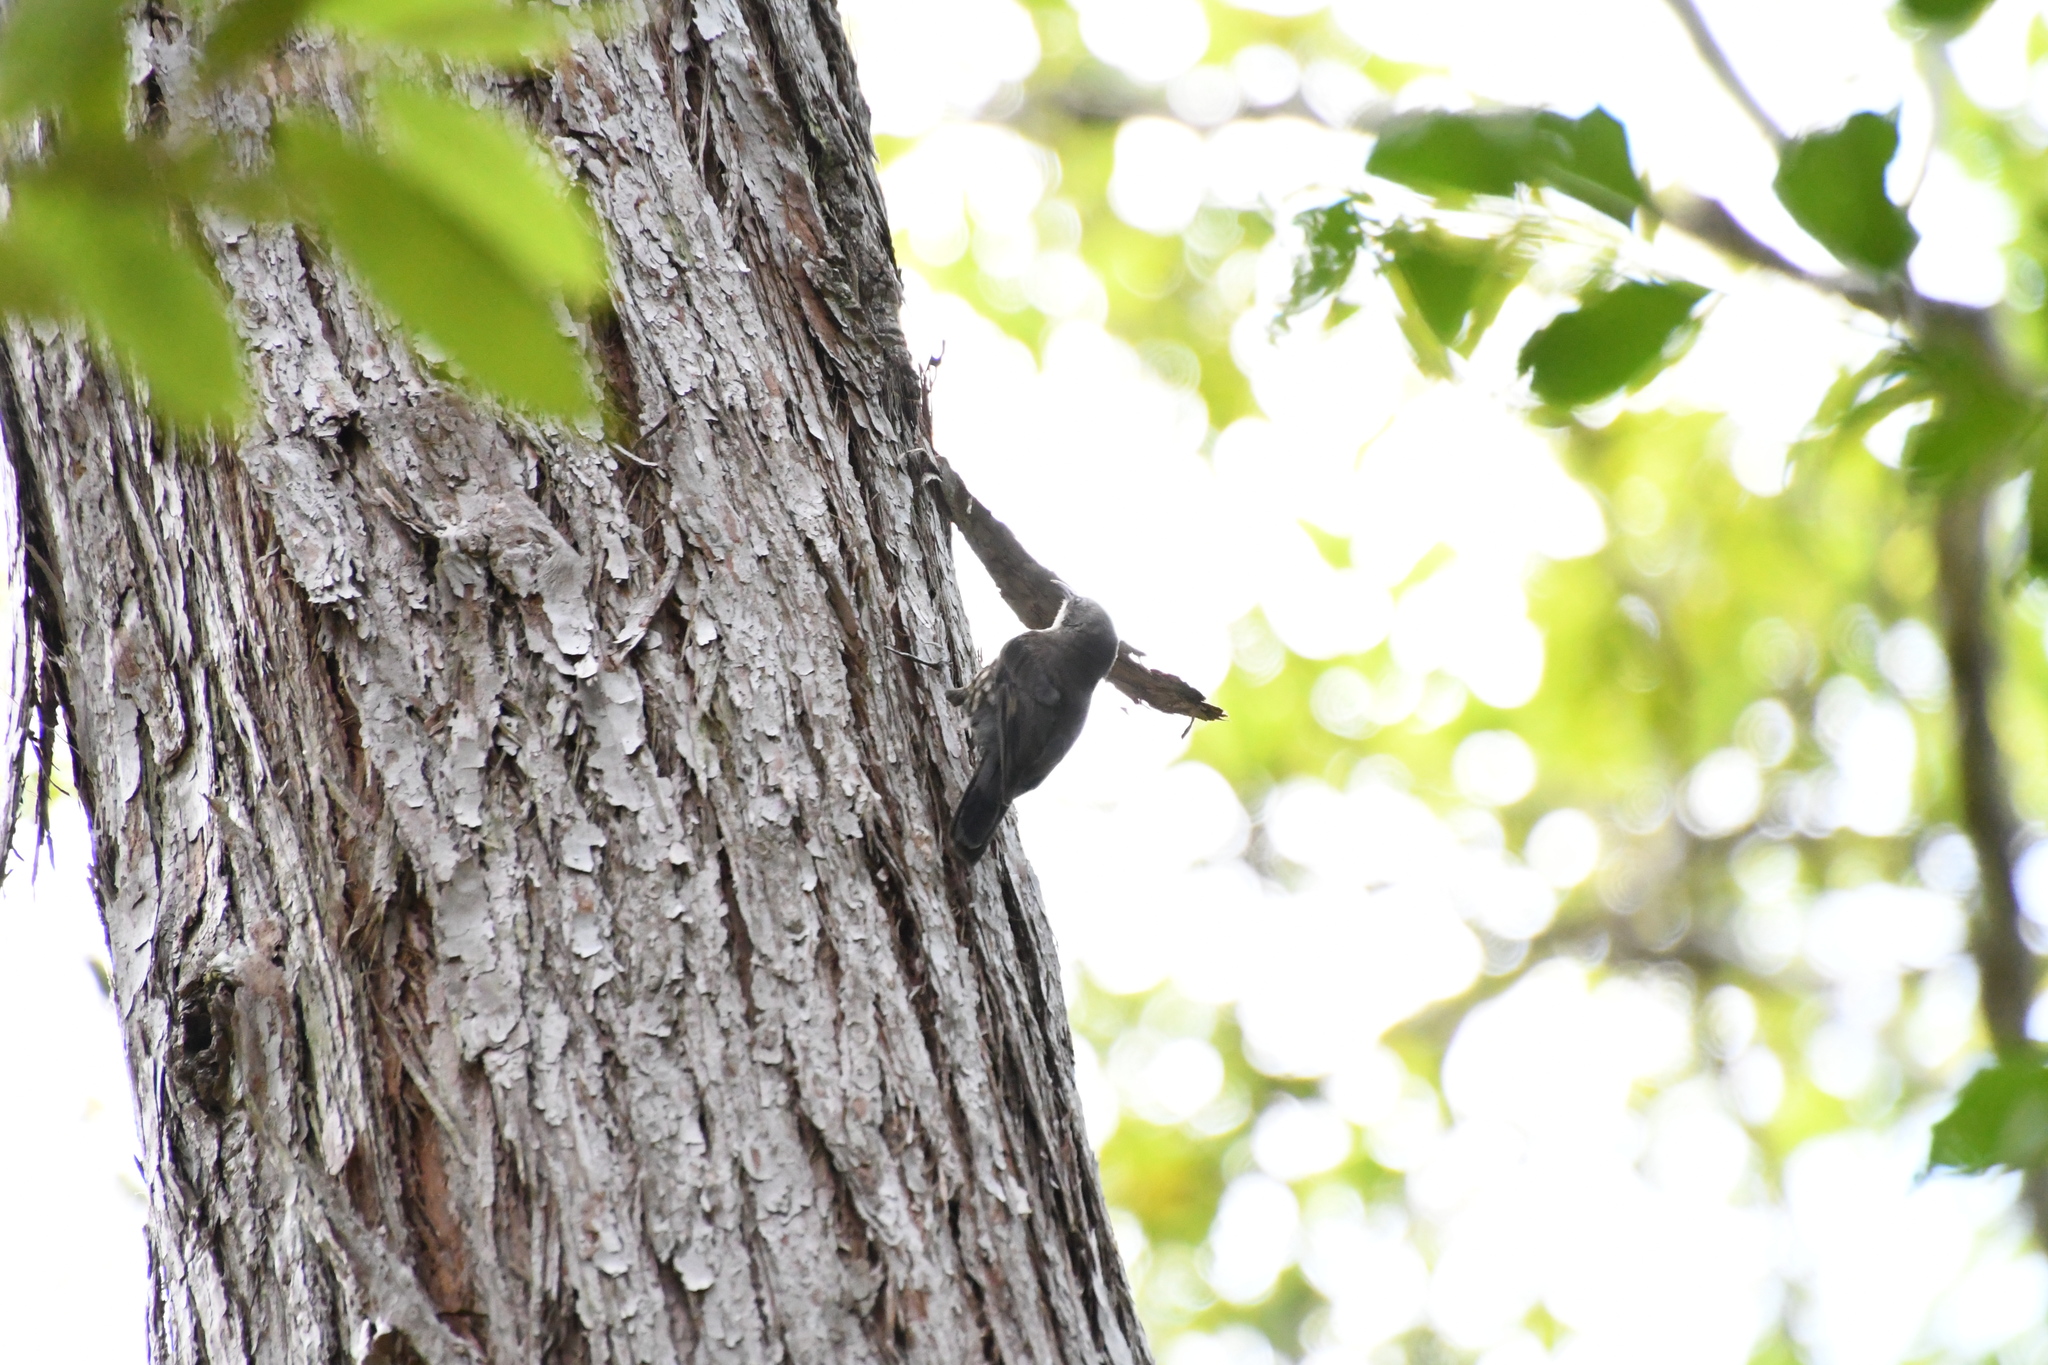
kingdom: Animalia
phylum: Chordata
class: Aves
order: Passeriformes
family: Climacteridae
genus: Cormobates
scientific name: Cormobates leucophaea
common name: White-throated treecreeper
